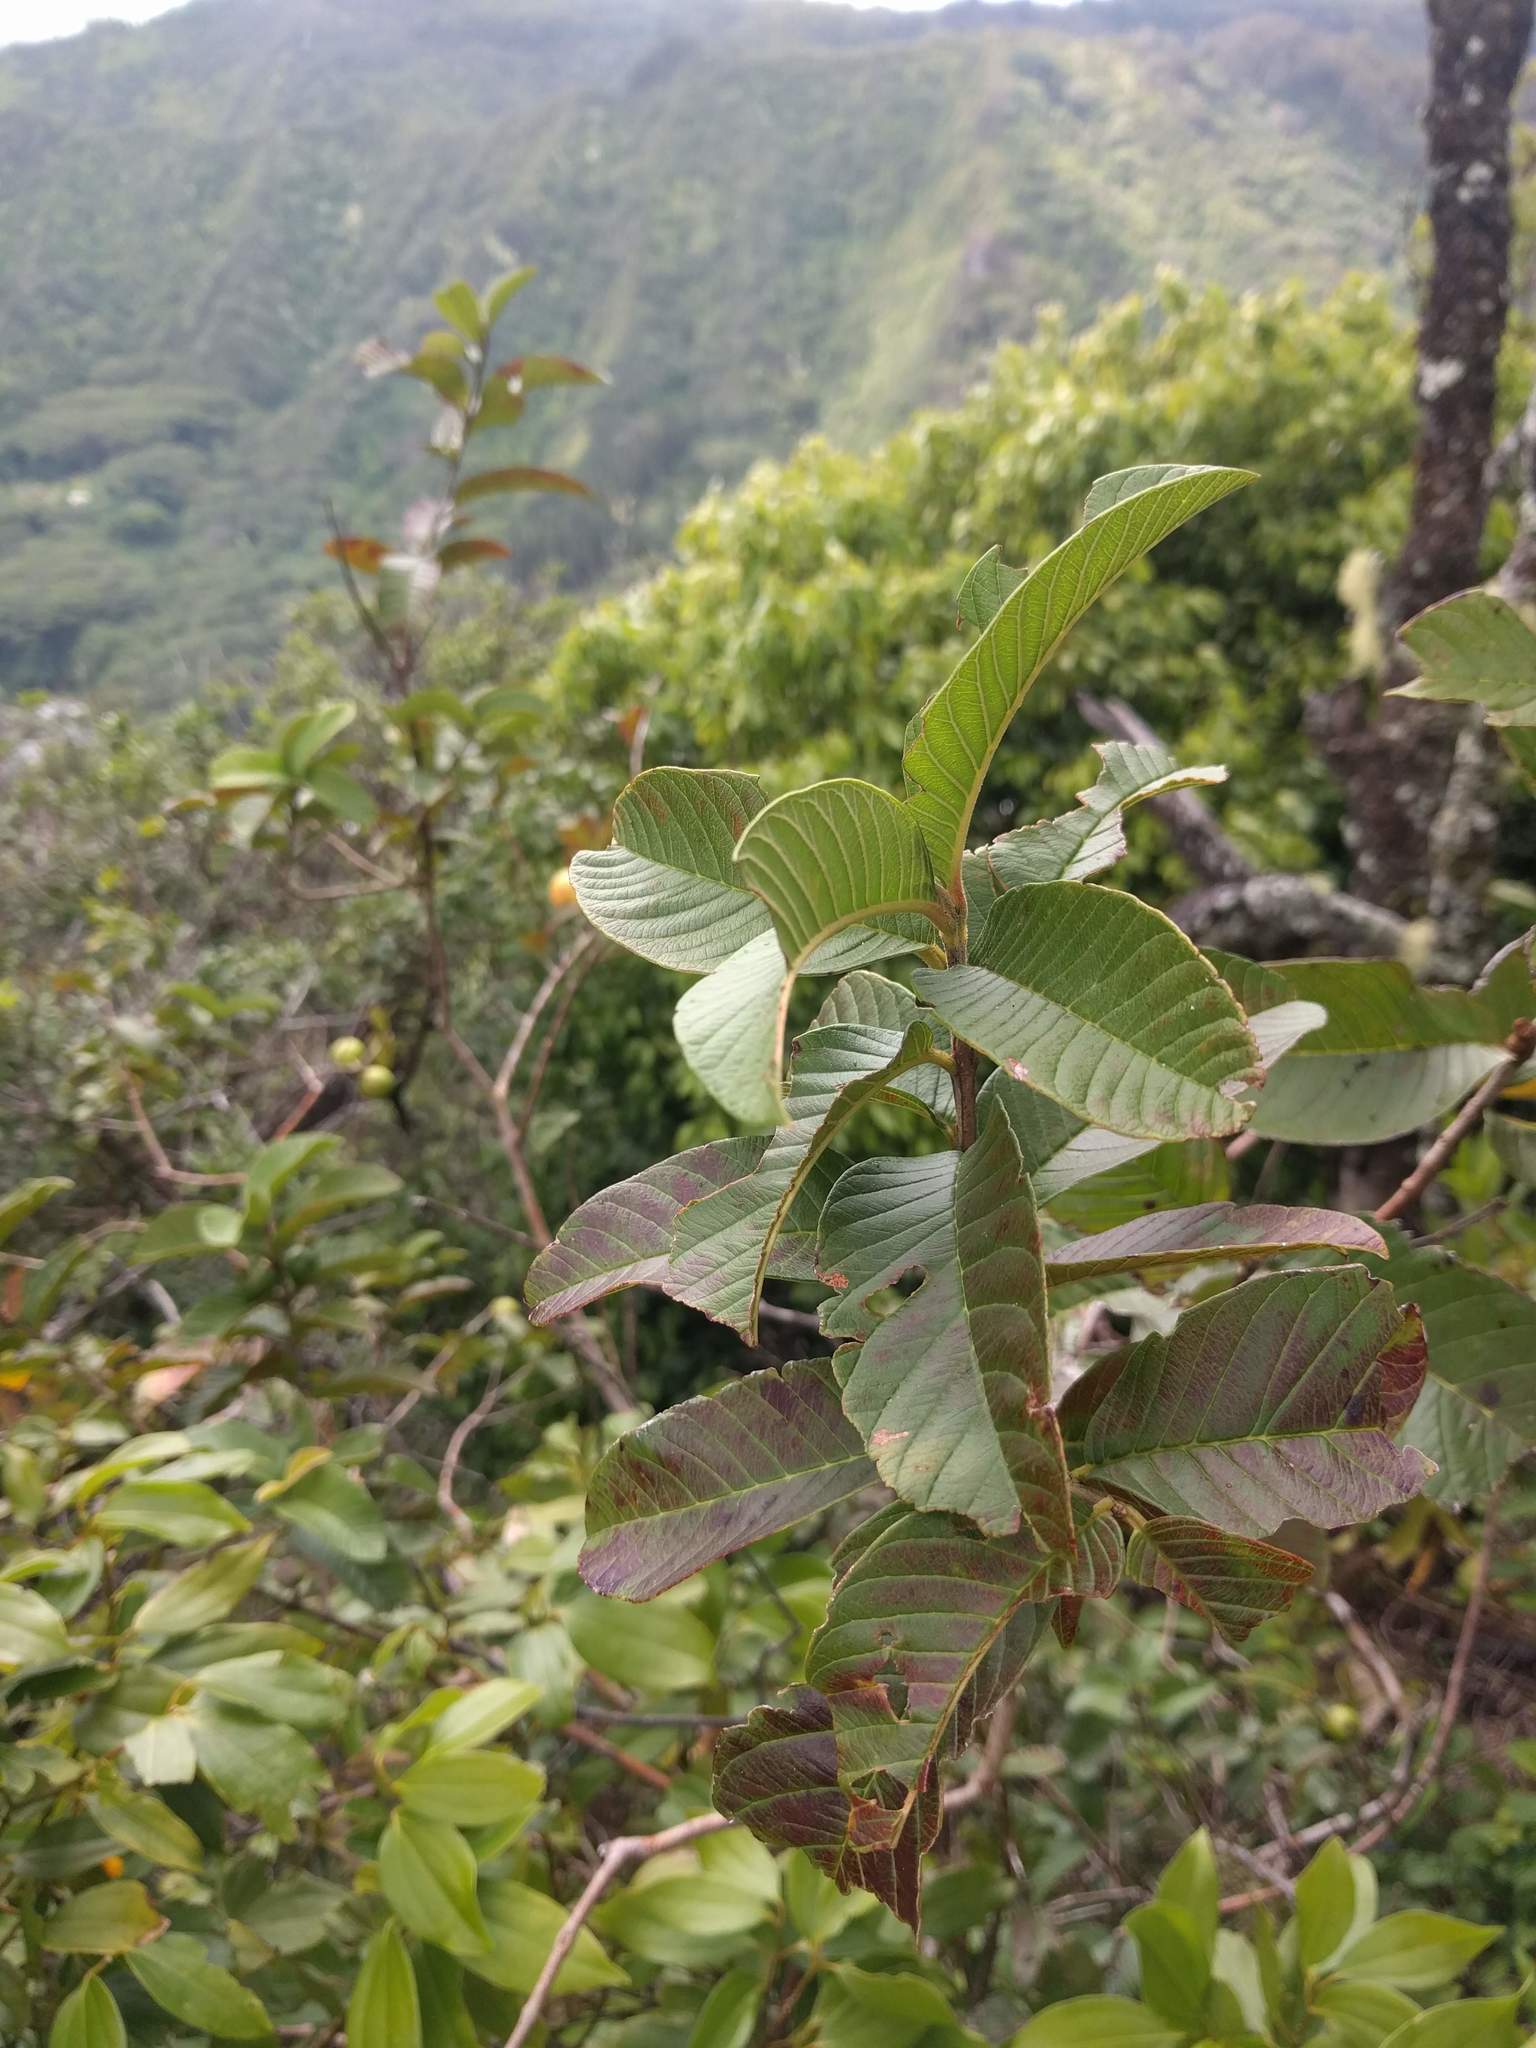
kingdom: Plantae
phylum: Tracheophyta
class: Magnoliopsida
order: Myrtales
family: Myrtaceae
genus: Psidium
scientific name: Psidium guajava
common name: Guava
